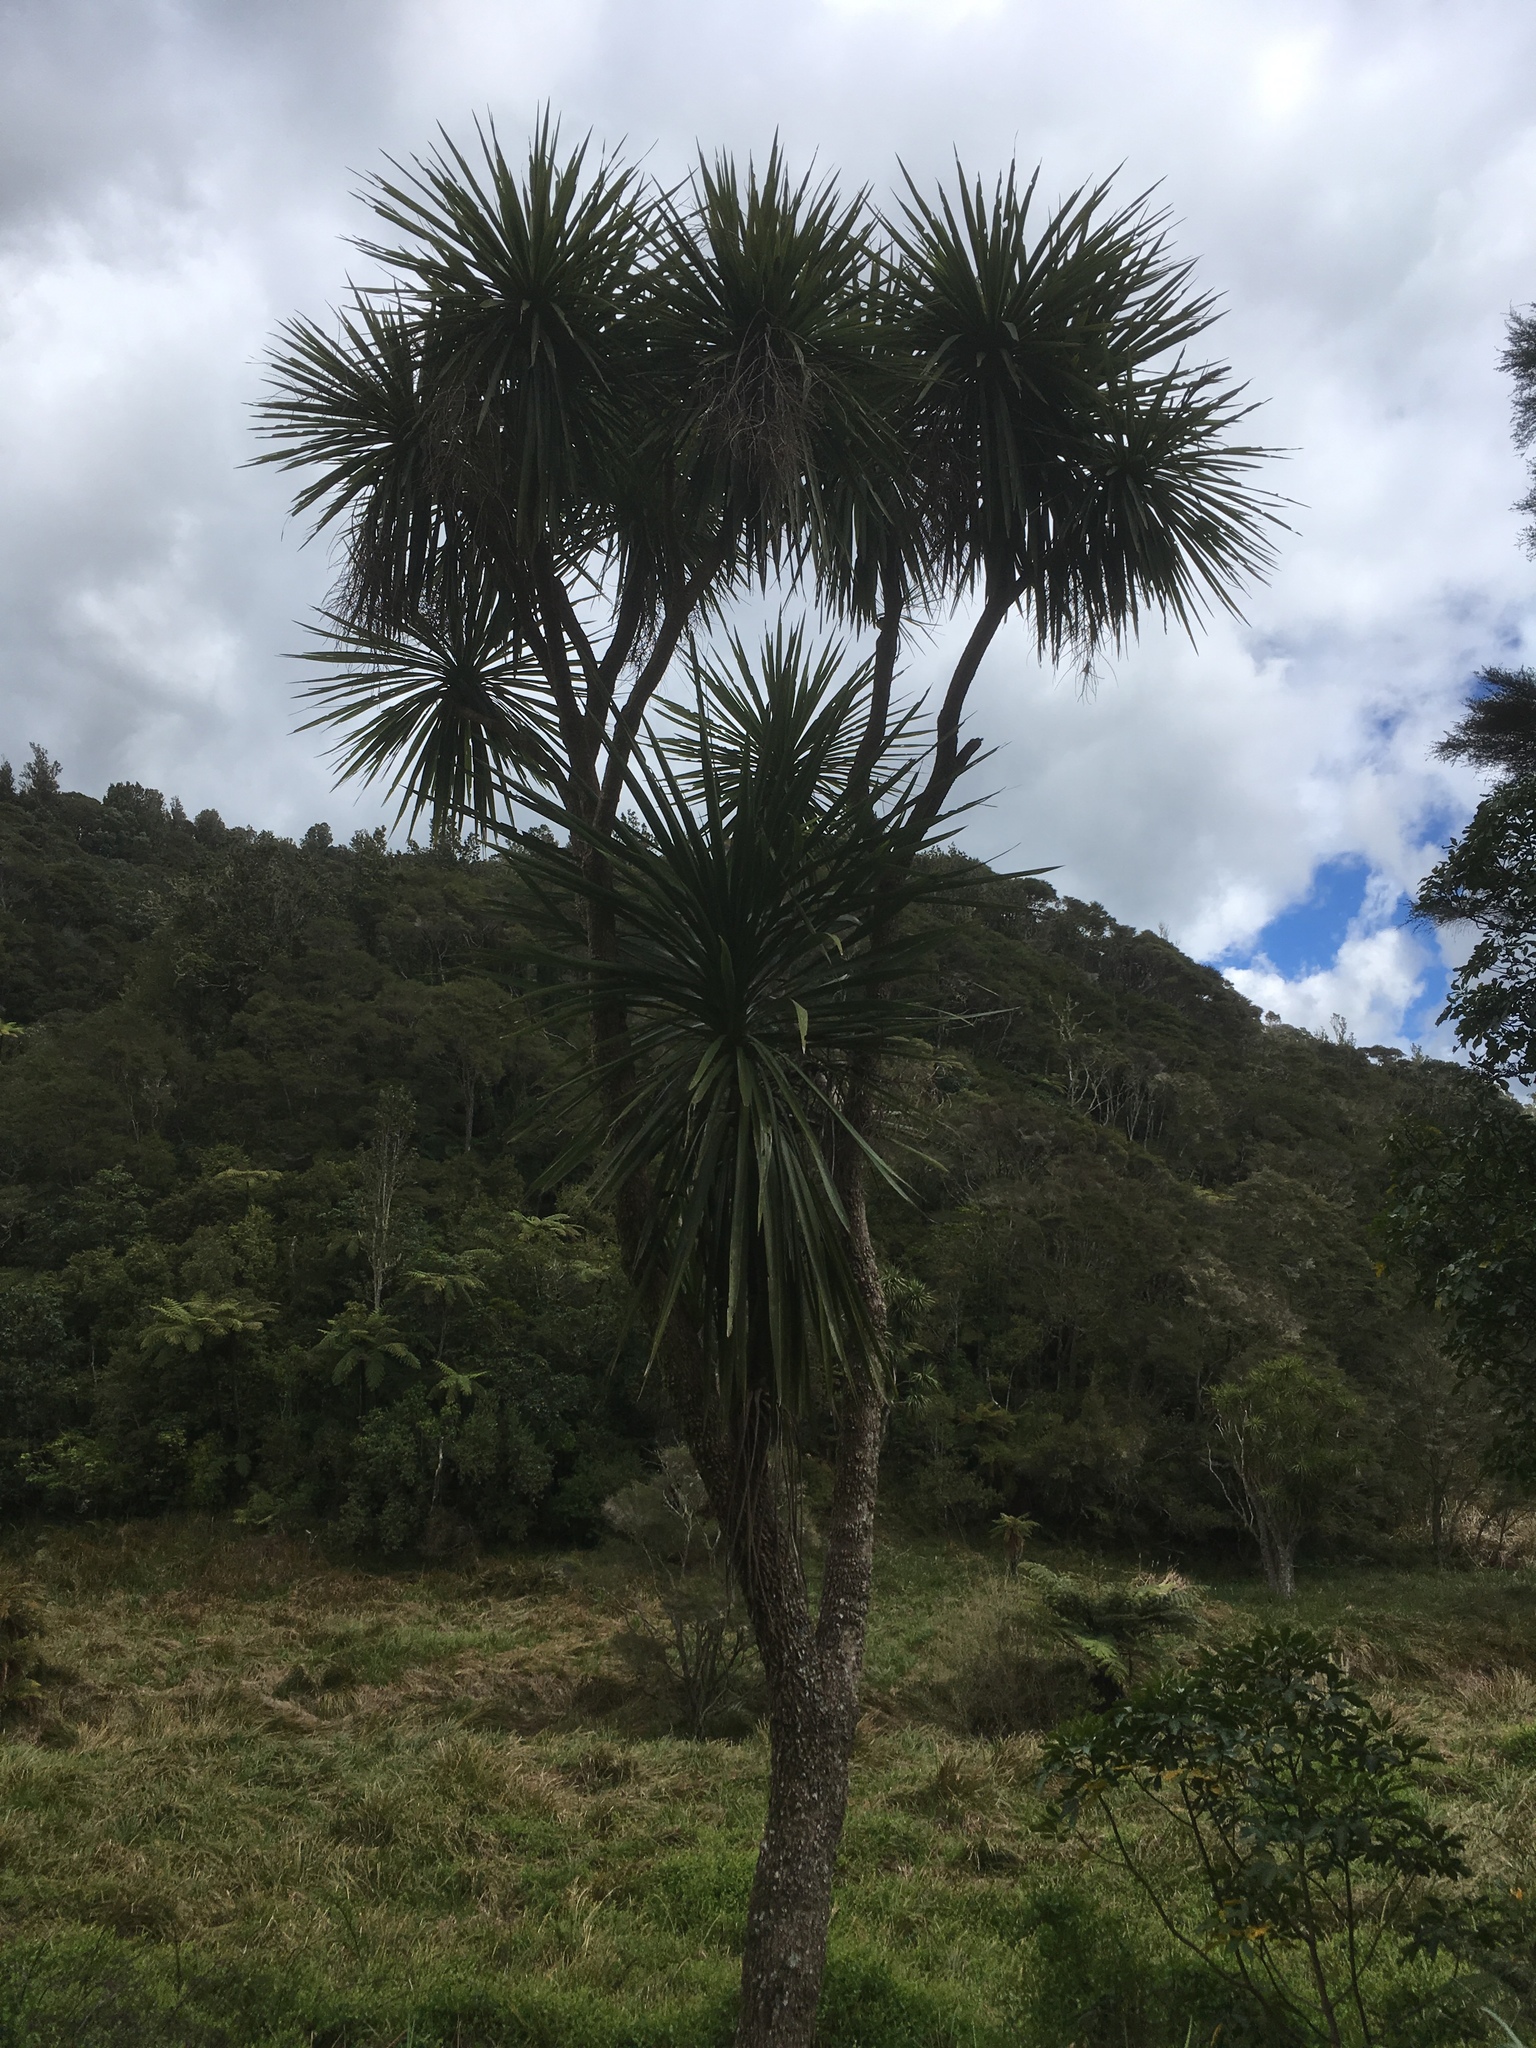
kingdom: Plantae
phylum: Tracheophyta
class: Liliopsida
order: Asparagales
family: Asparagaceae
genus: Cordyline
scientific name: Cordyline australis
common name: Cabbage-palm
